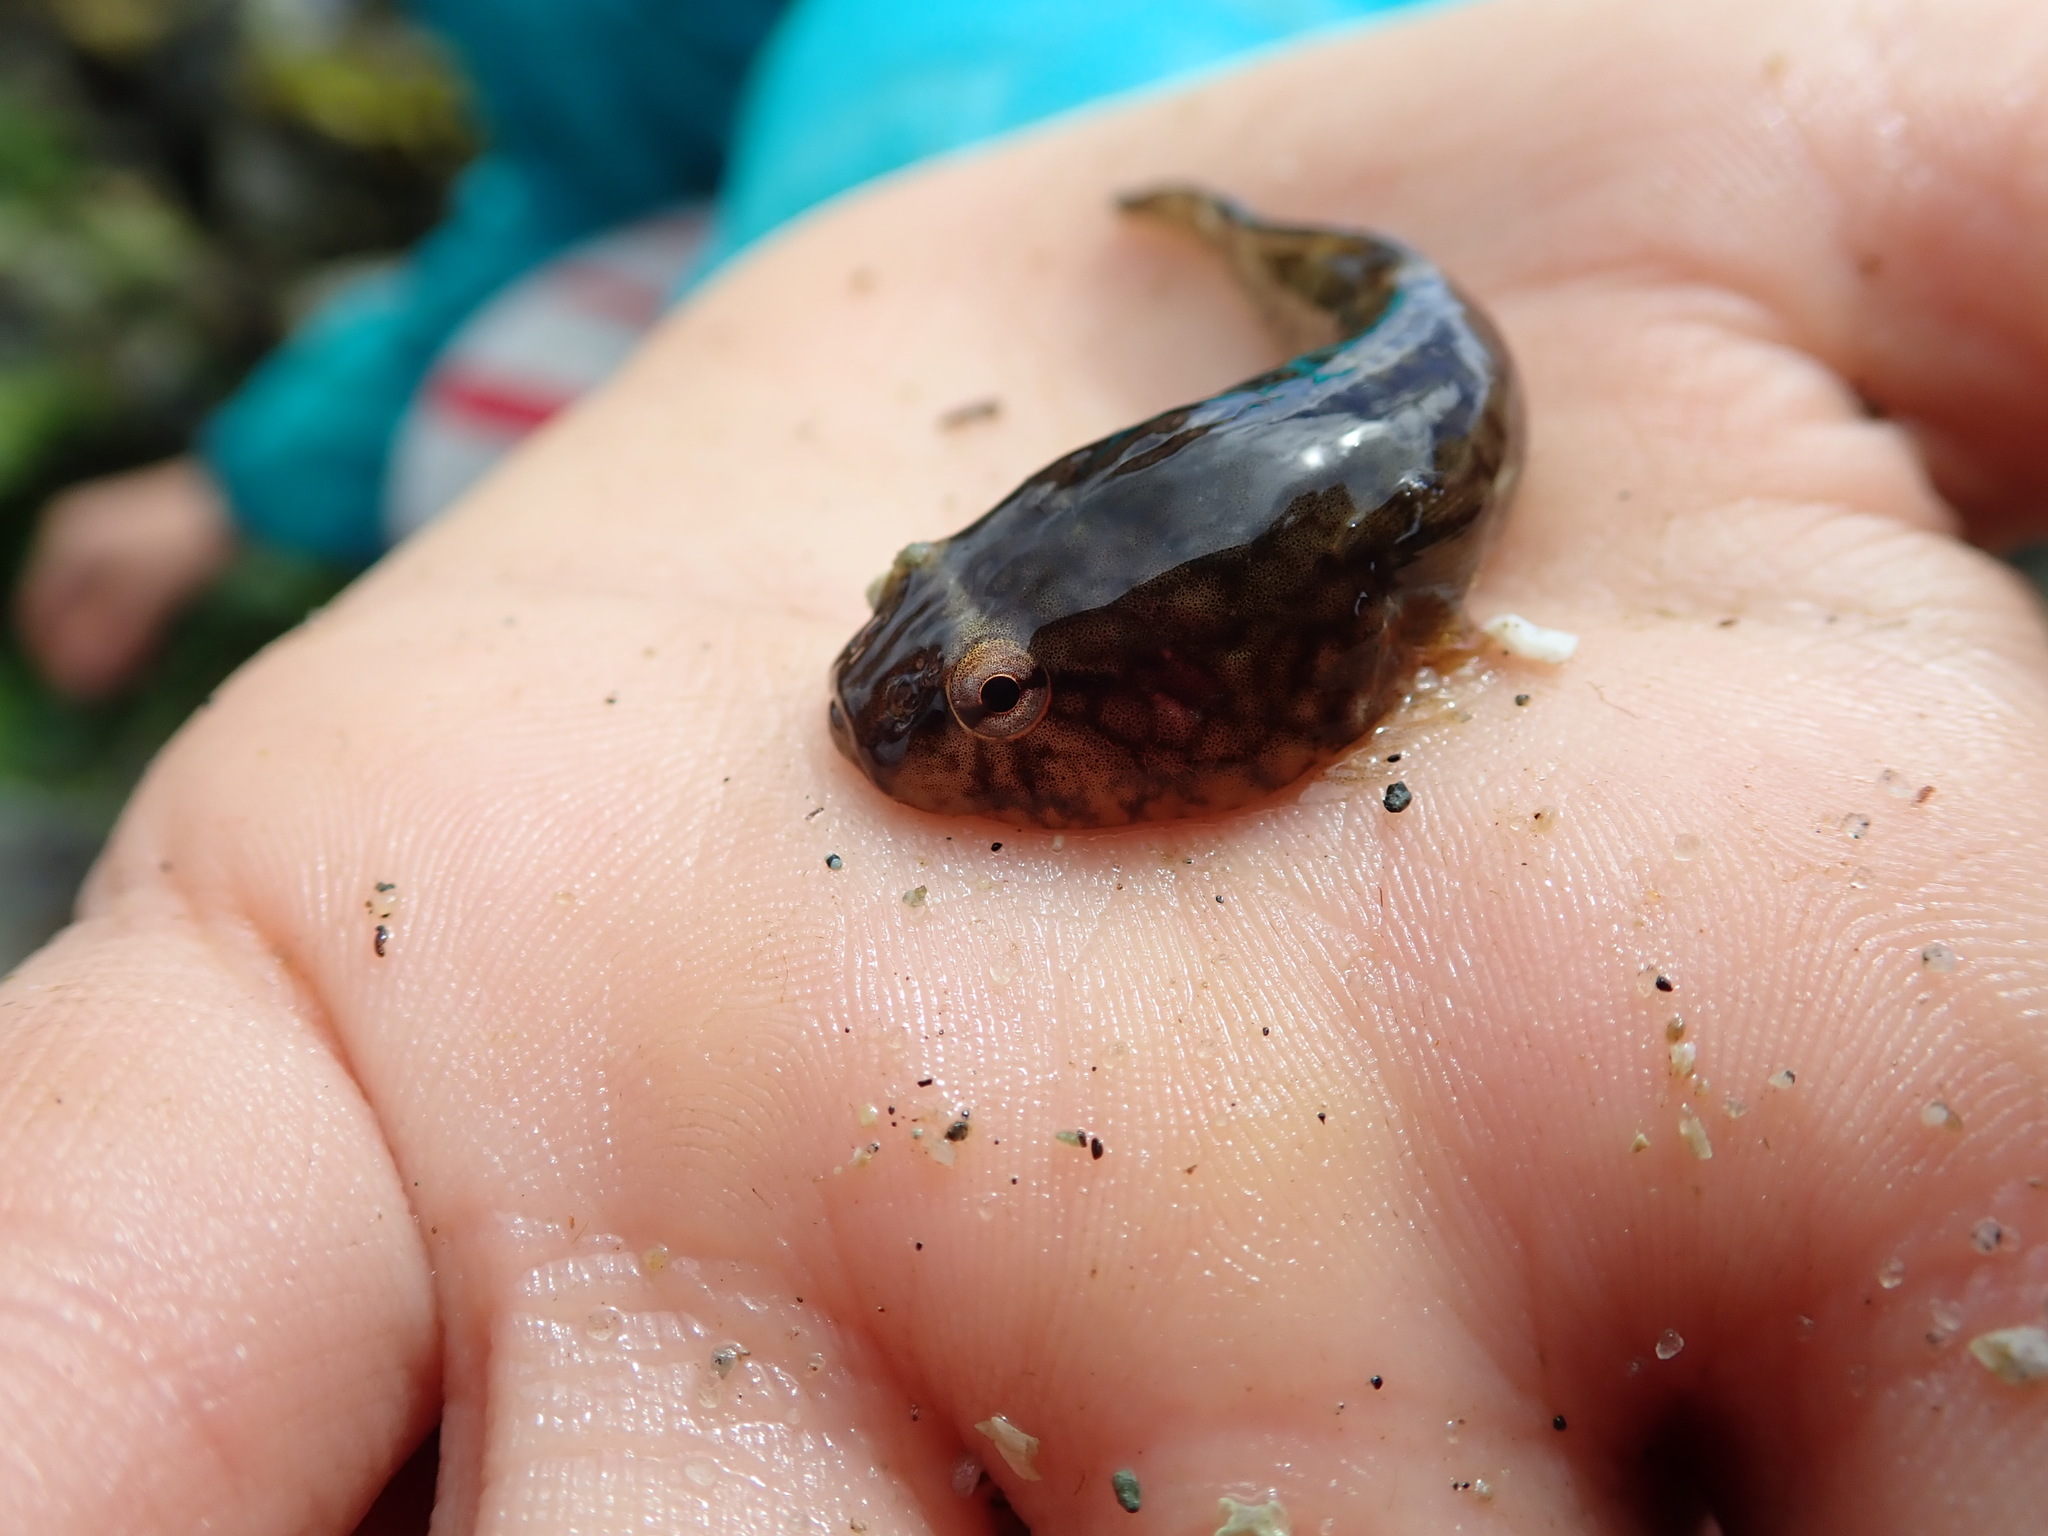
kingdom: Animalia
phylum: Chordata
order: Gobiesociformes
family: Gobiesocidae
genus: Gobiesox
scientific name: Gobiesox maeandricus
